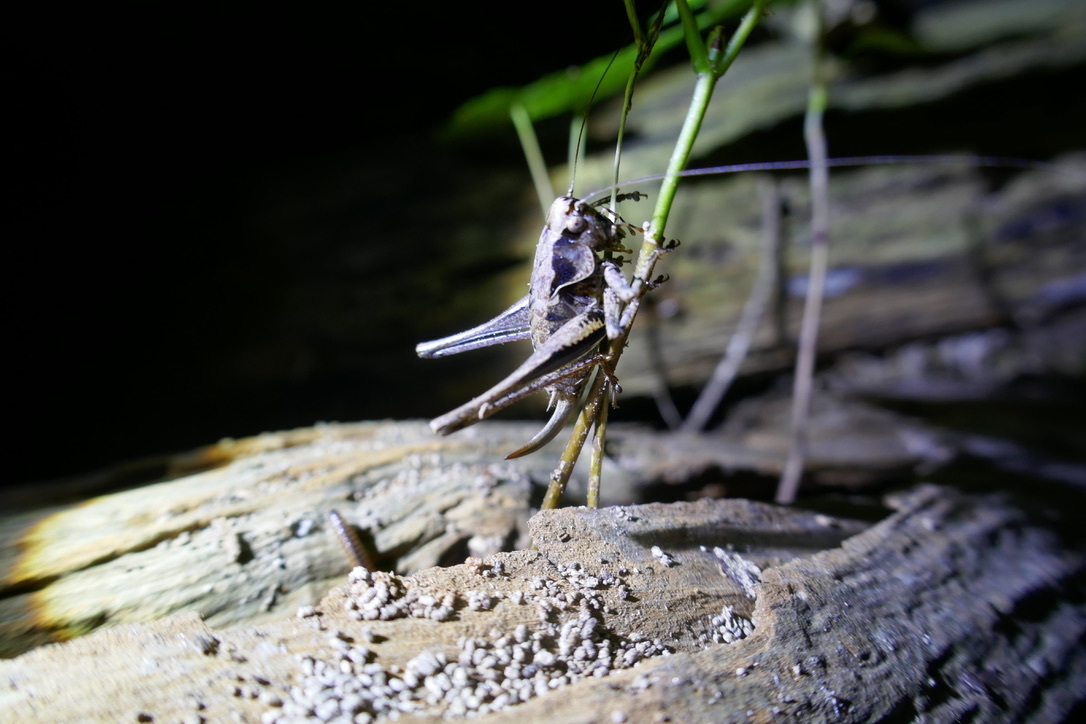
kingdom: Animalia
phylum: Arthropoda
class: Insecta
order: Orthoptera
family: Tettigoniidae
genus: Pholidoptera
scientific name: Pholidoptera griseoaptera
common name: Dark bush-cricket
